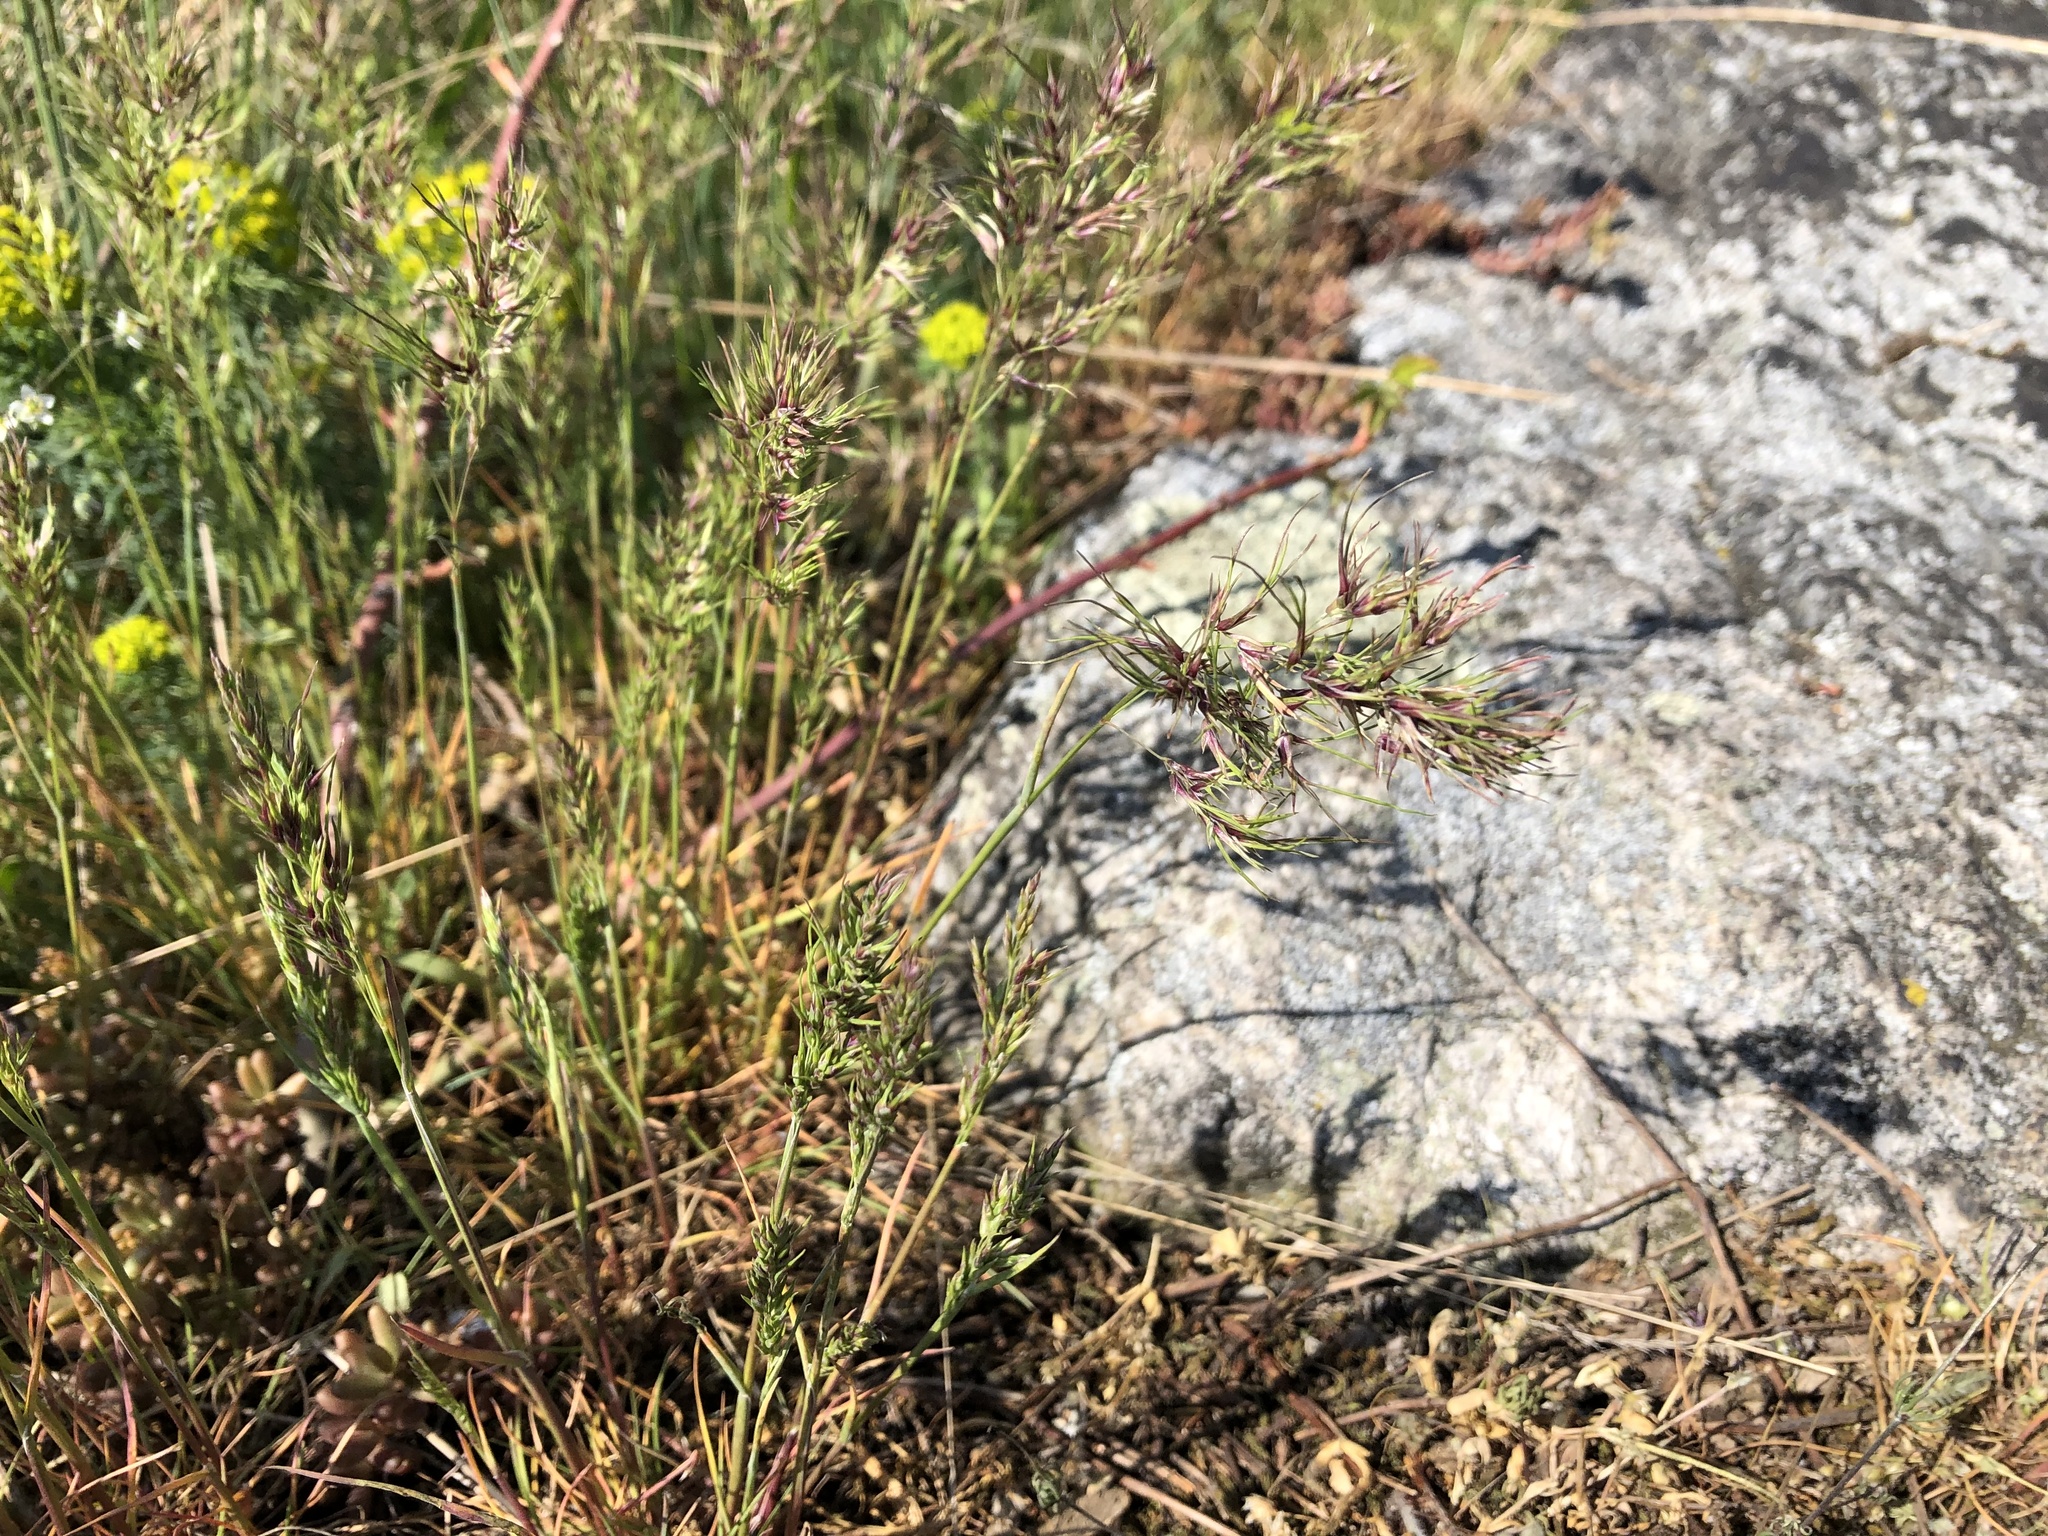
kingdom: Plantae
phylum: Tracheophyta
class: Liliopsida
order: Poales
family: Poaceae
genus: Poa
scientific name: Poa bulbosa
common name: Bulbous bluegrass
